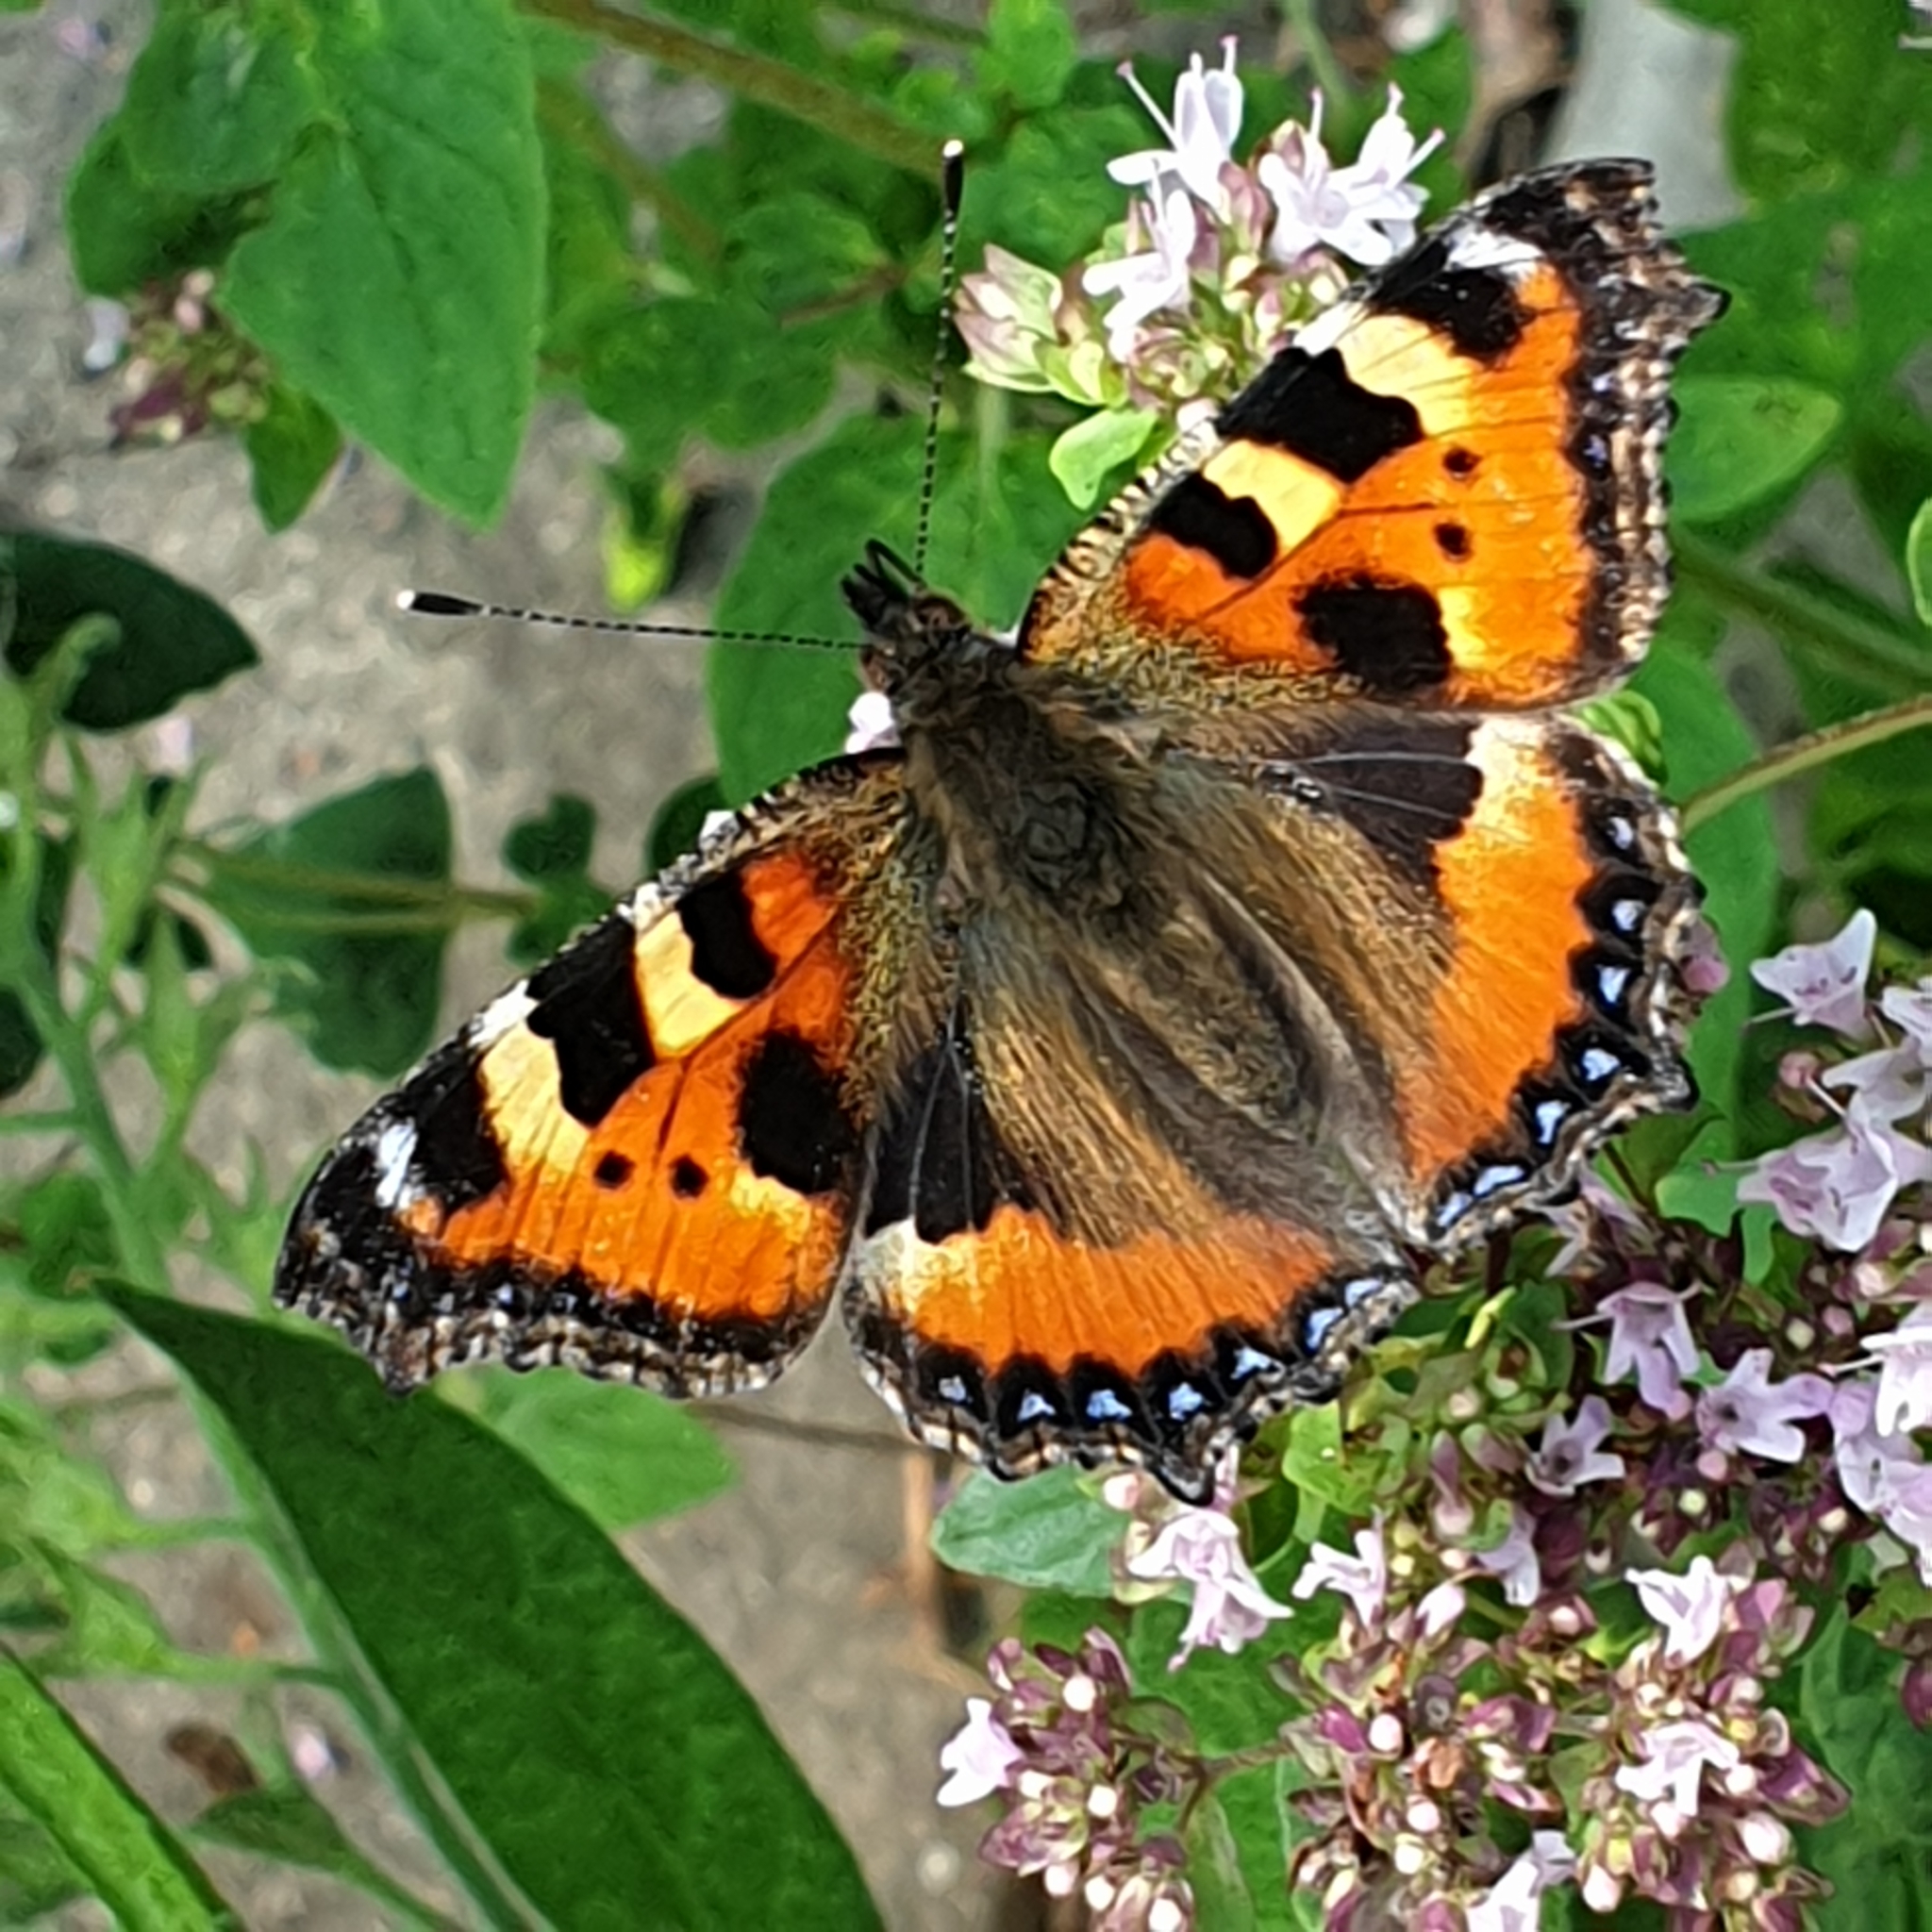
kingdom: Animalia
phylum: Arthropoda
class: Insecta
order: Lepidoptera
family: Nymphalidae
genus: Aglais
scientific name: Aglais urticae
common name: Small tortoiseshell
